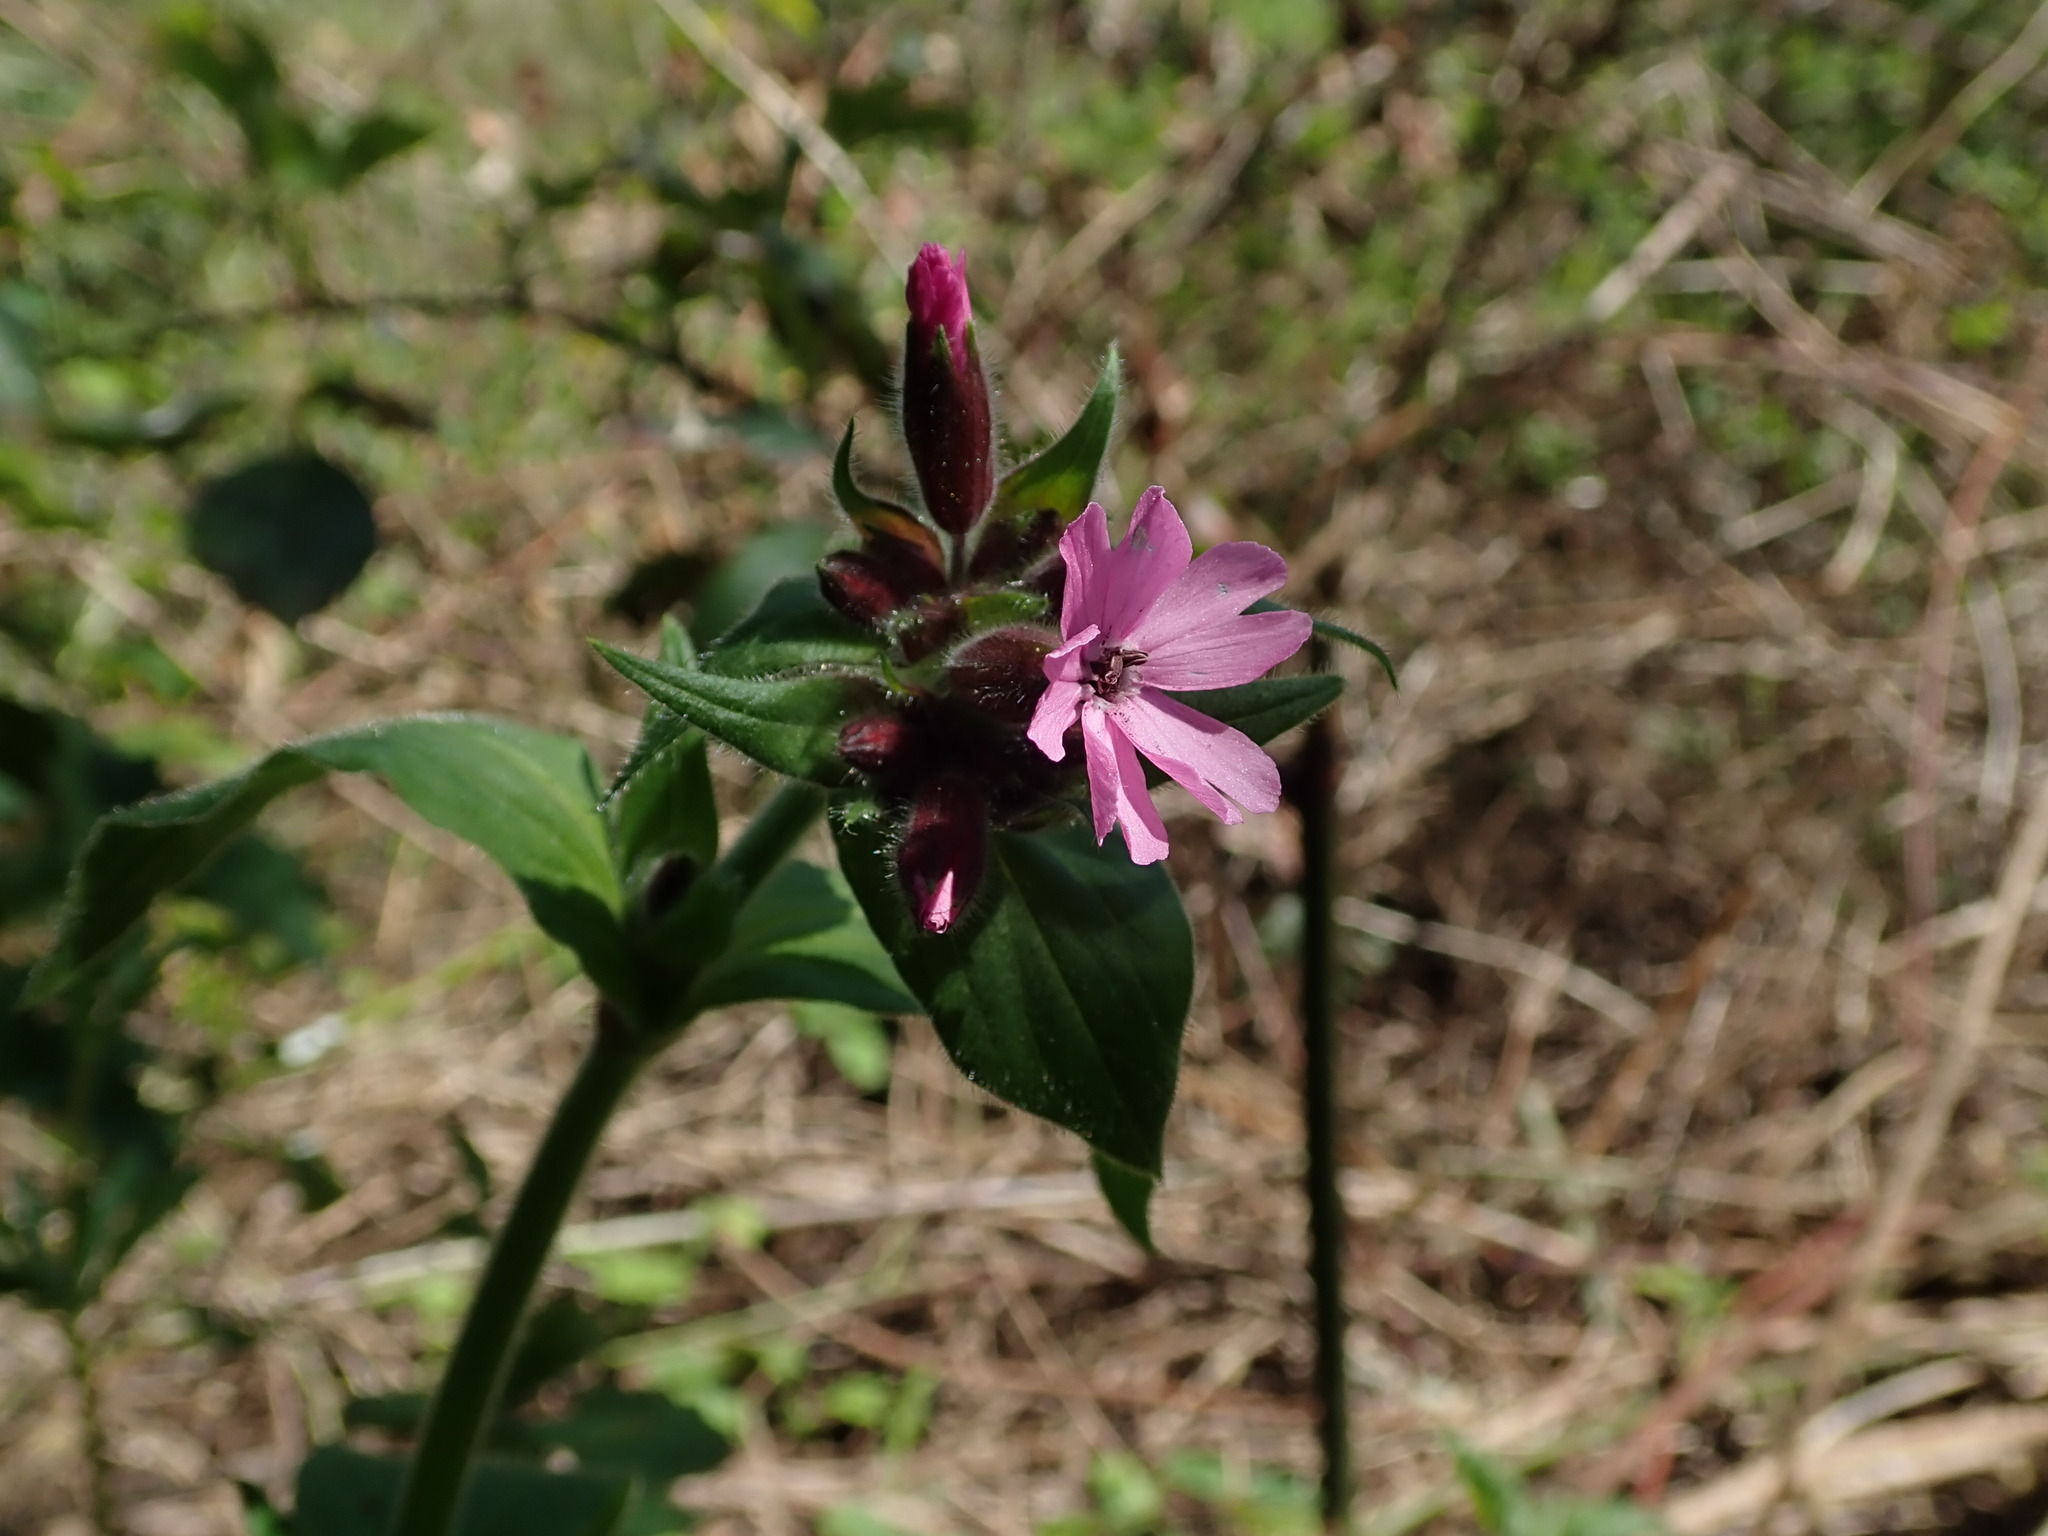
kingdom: Plantae
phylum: Tracheophyta
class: Magnoliopsida
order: Caryophyllales
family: Caryophyllaceae
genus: Silene
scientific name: Silene dioica
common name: Red campion
